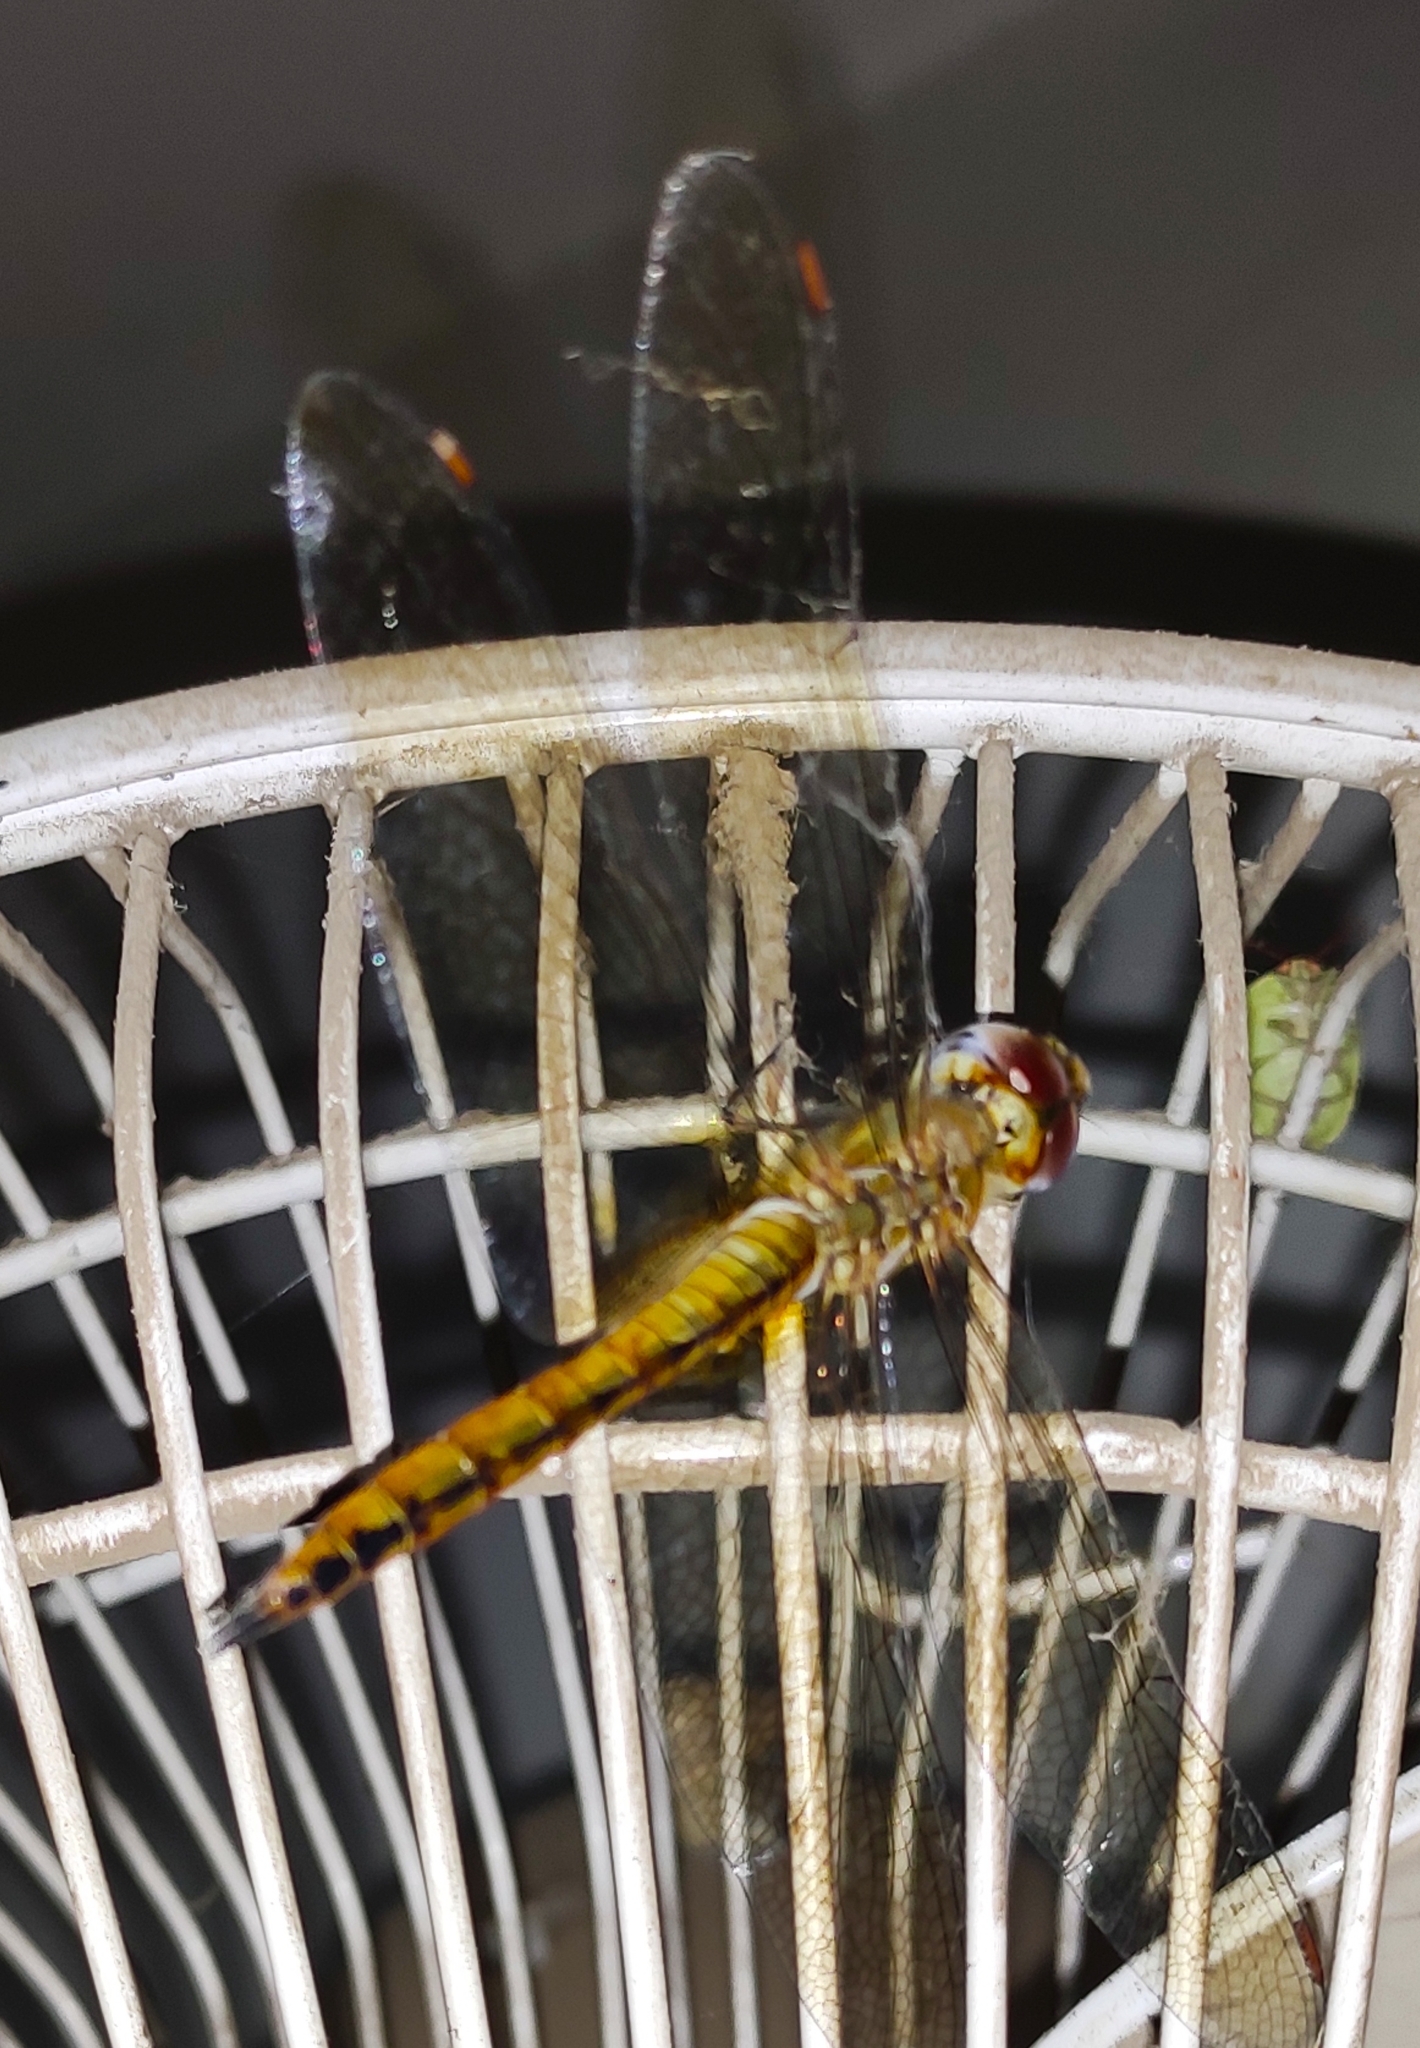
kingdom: Animalia
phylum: Arthropoda
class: Insecta
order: Odonata
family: Libellulidae
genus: Pantala
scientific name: Pantala flavescens
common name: Wandering glider
